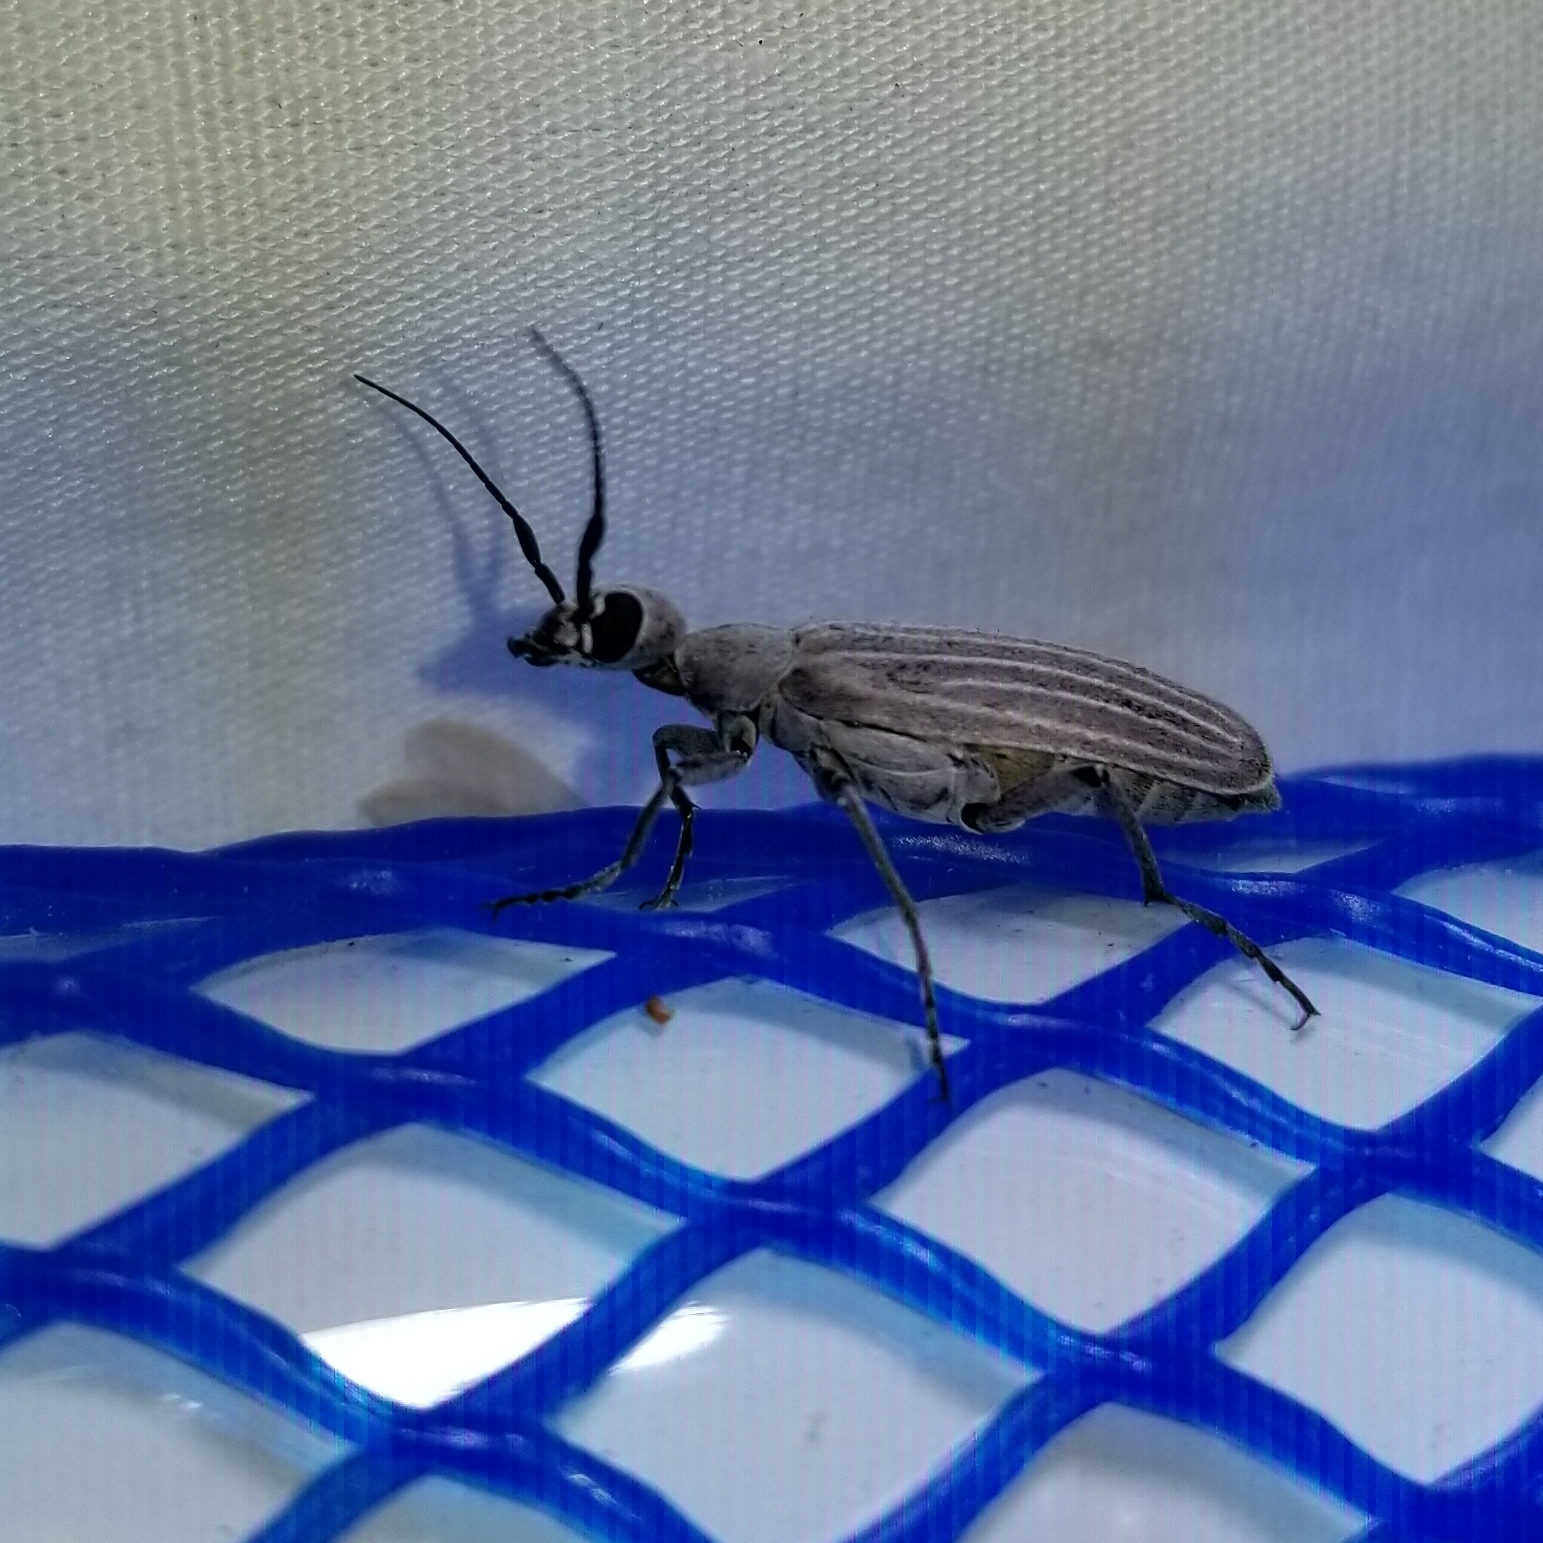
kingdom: Animalia
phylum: Arthropoda
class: Insecta
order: Coleoptera
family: Meloidae
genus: Epicauta
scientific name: Epicauta tenuilineata
